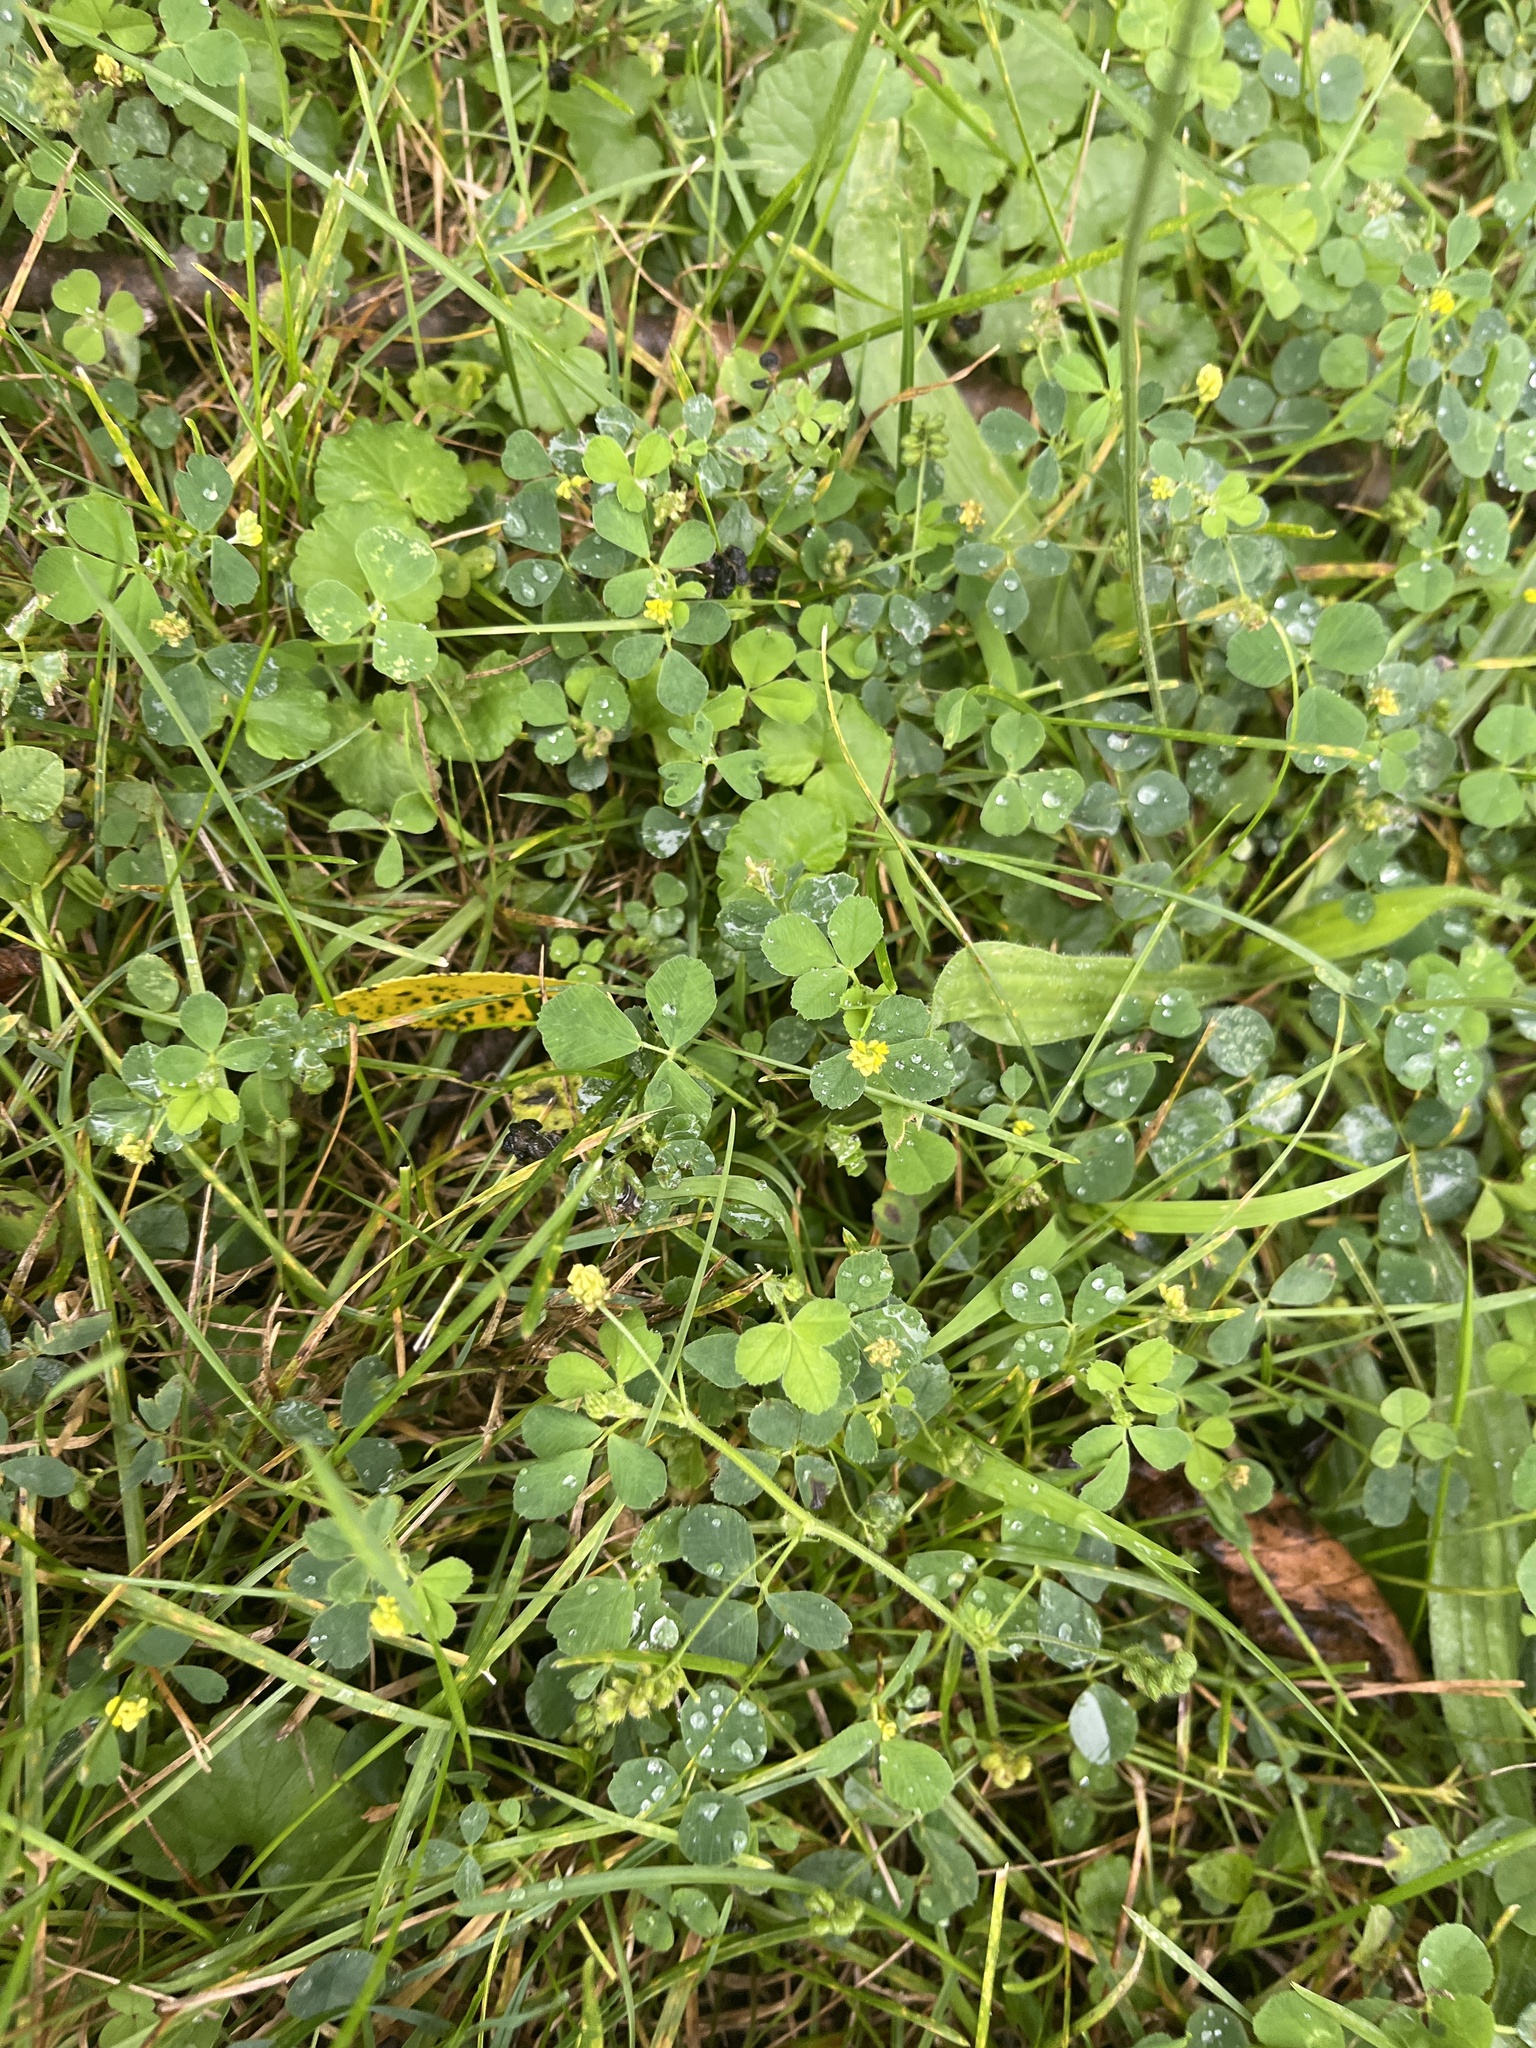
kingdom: Plantae
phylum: Tracheophyta
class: Magnoliopsida
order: Fabales
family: Fabaceae
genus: Medicago
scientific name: Medicago lupulina
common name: Black medick
